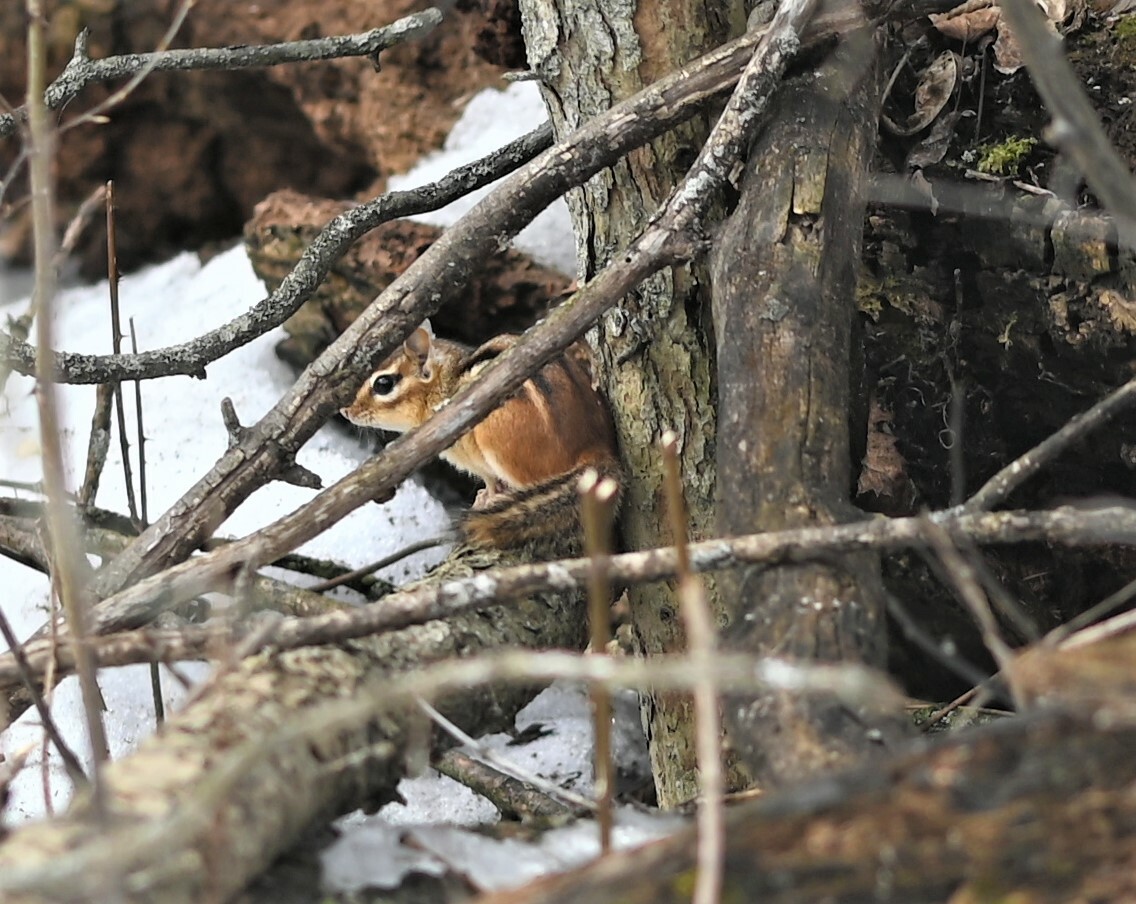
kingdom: Animalia
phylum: Chordata
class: Mammalia
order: Rodentia
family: Sciuridae
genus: Tamias
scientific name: Tamias striatus
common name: Eastern chipmunk
